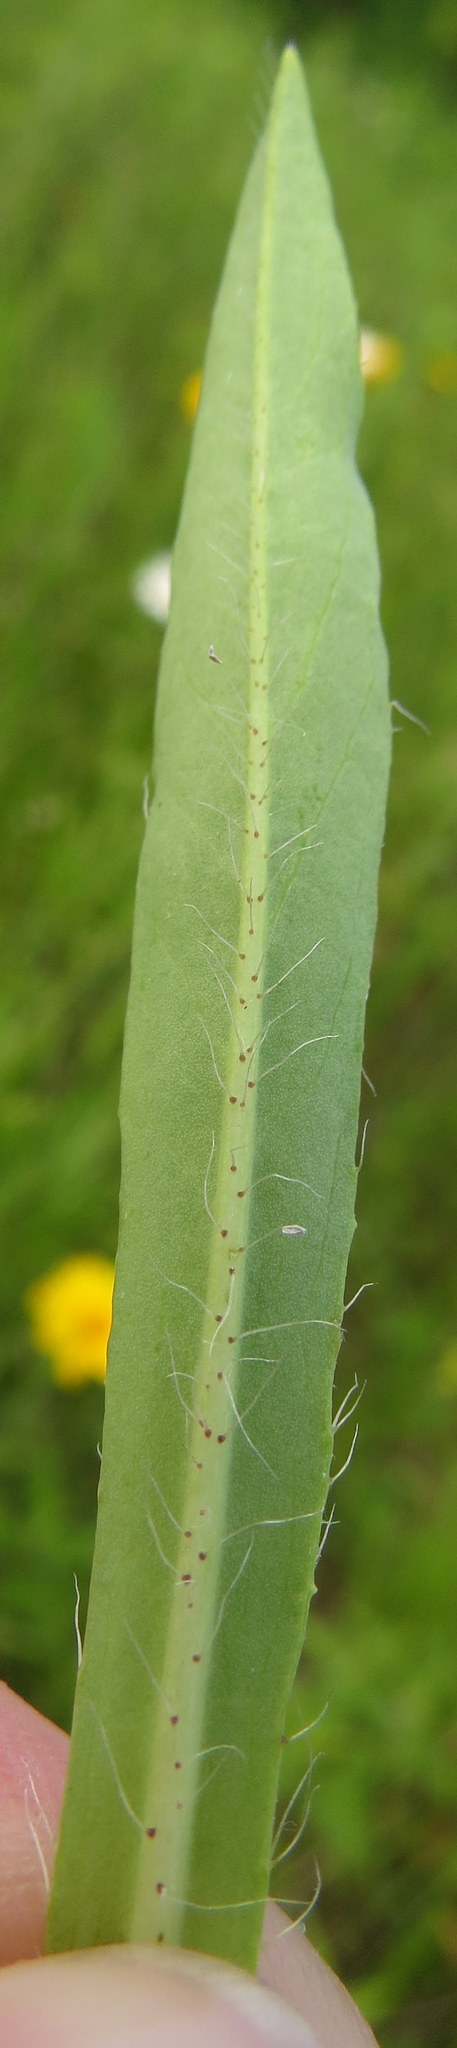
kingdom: Plantae
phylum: Tracheophyta
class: Magnoliopsida
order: Asterales
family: Asteraceae
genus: Pilosella
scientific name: Pilosella piloselloides
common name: Glaucous king-devil
